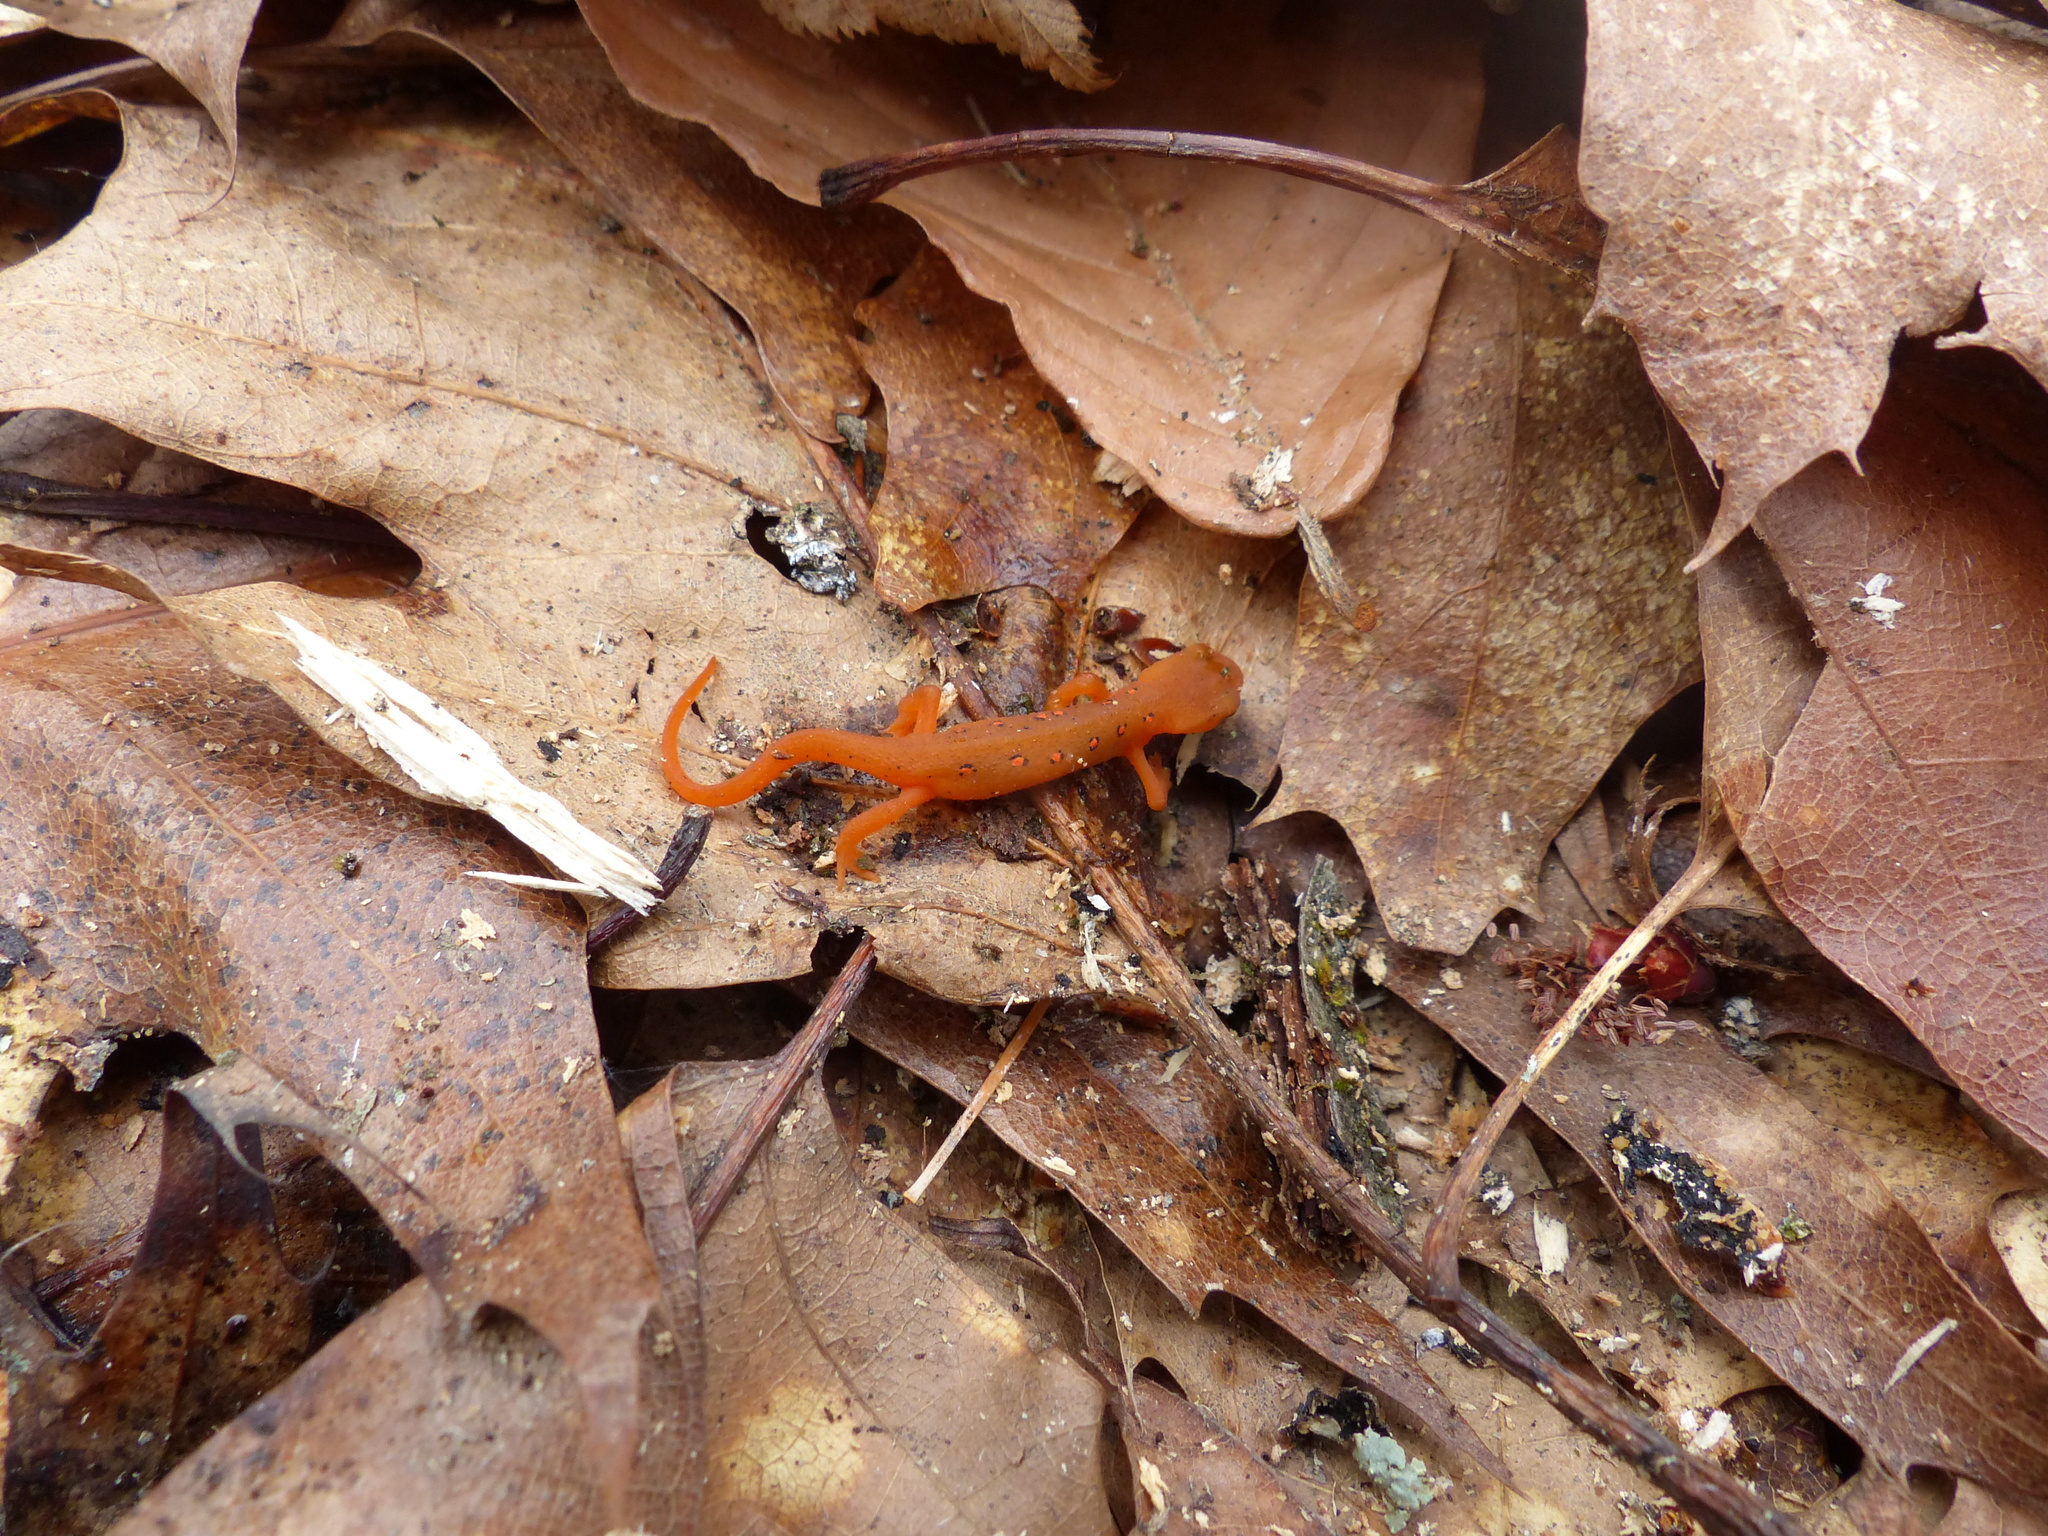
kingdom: Animalia
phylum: Chordata
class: Amphibia
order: Caudata
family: Salamandridae
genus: Notophthalmus
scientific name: Notophthalmus viridescens
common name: Eastern newt
